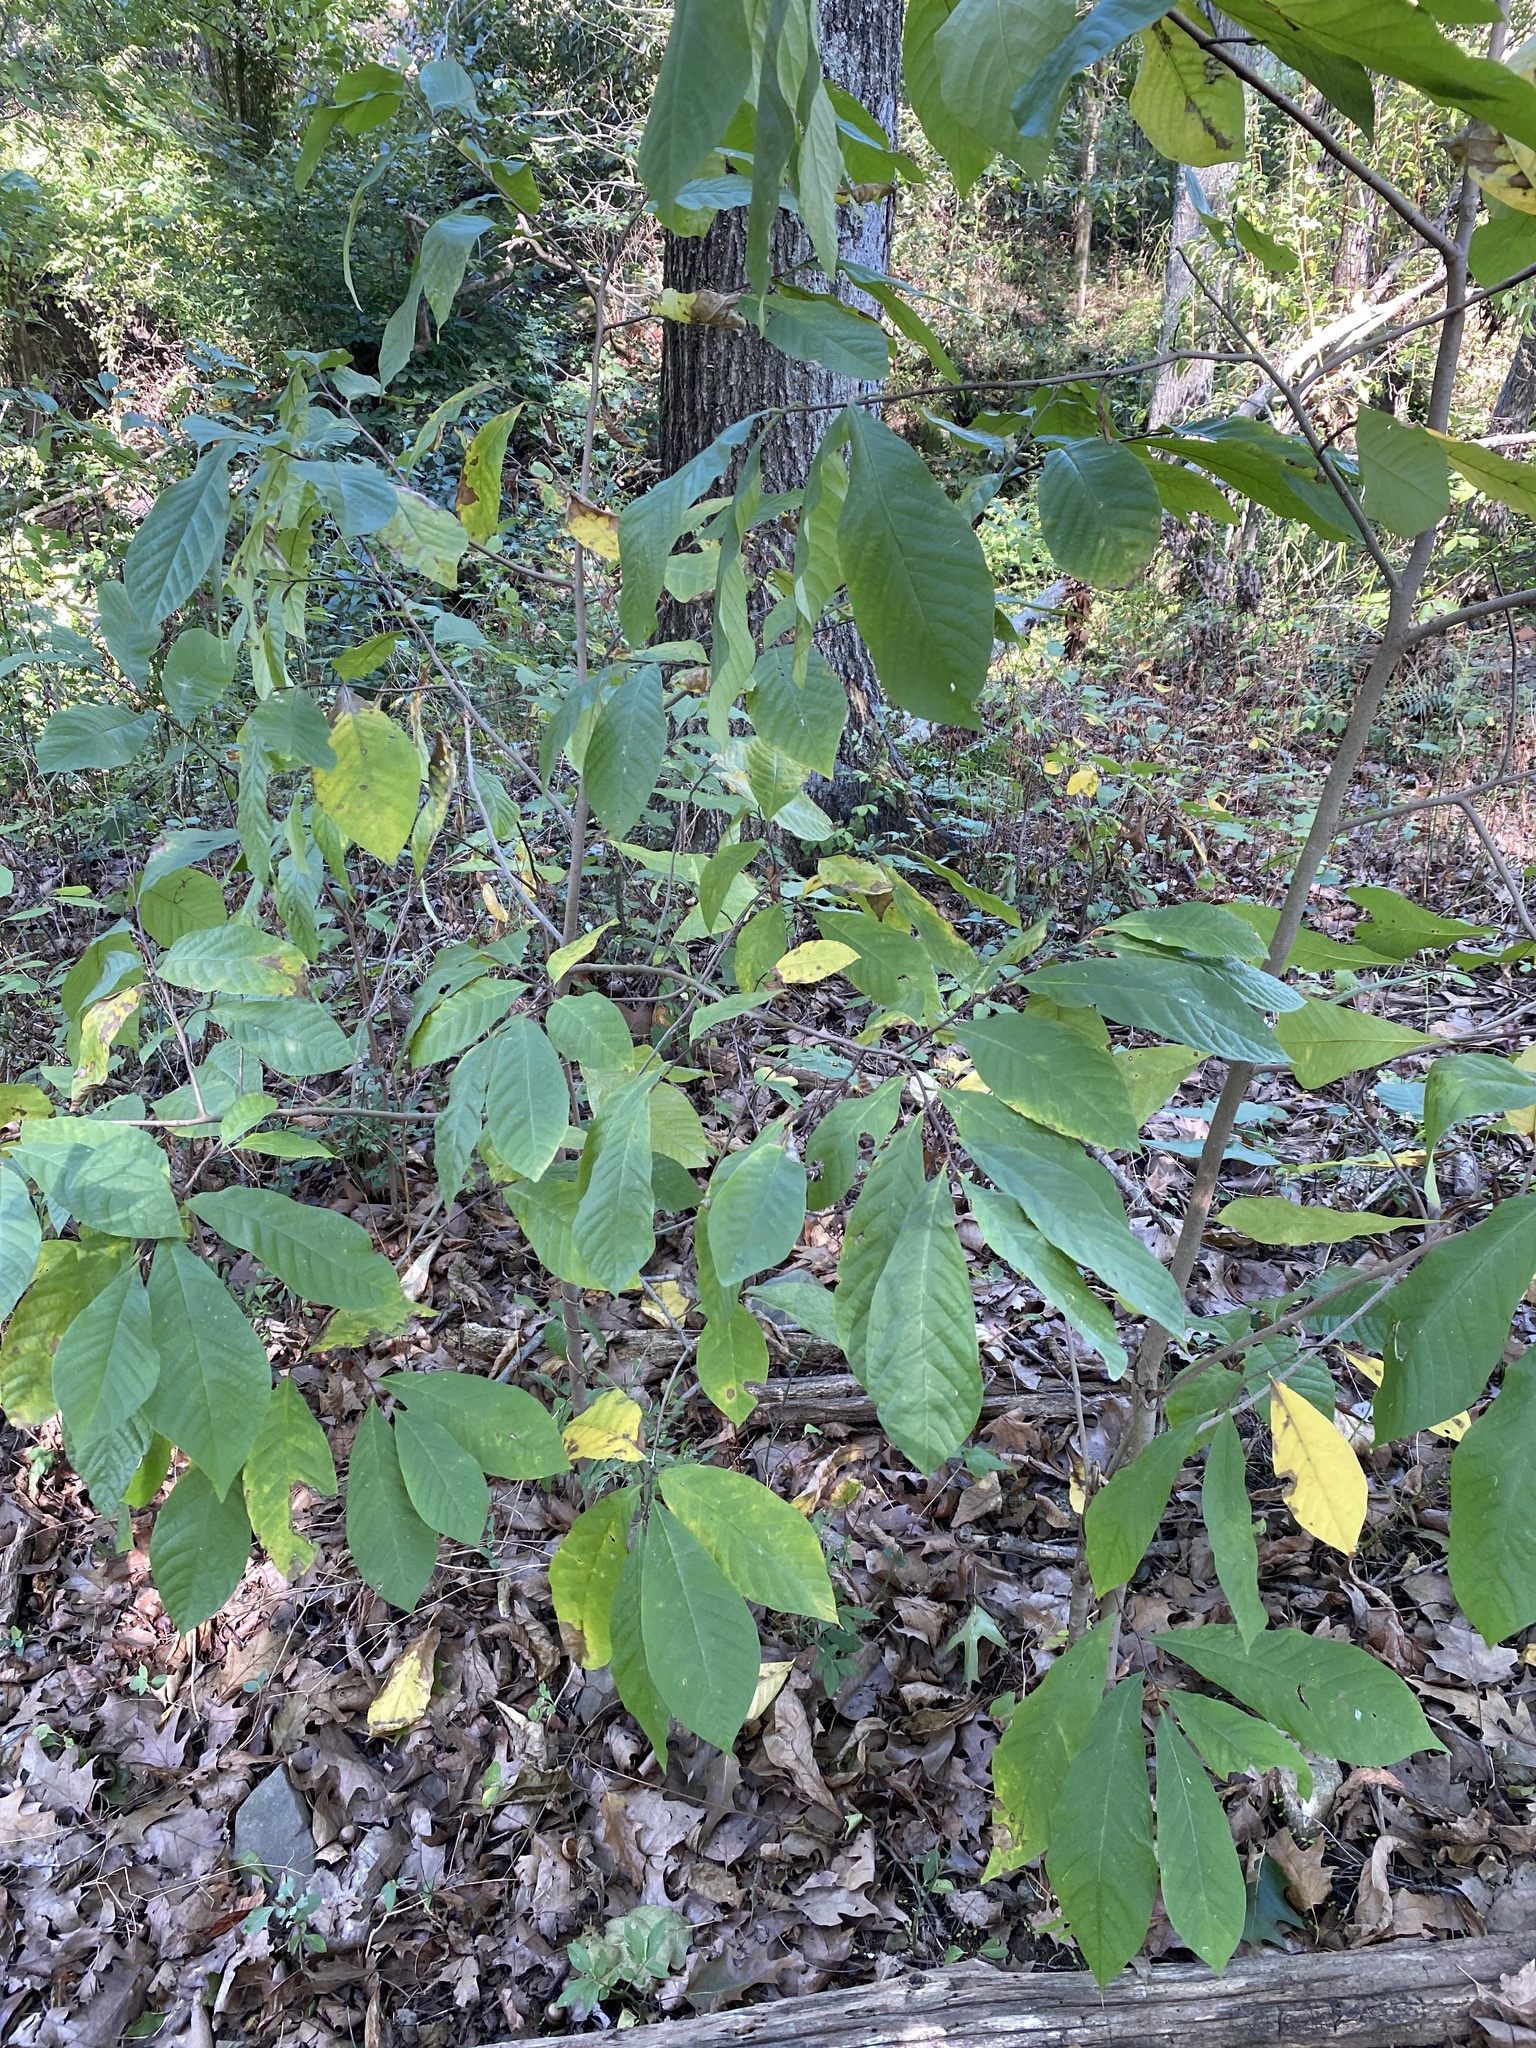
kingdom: Plantae
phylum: Tracheophyta
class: Magnoliopsida
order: Magnoliales
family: Annonaceae
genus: Asimina
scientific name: Asimina triloba
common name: Dog-banana
